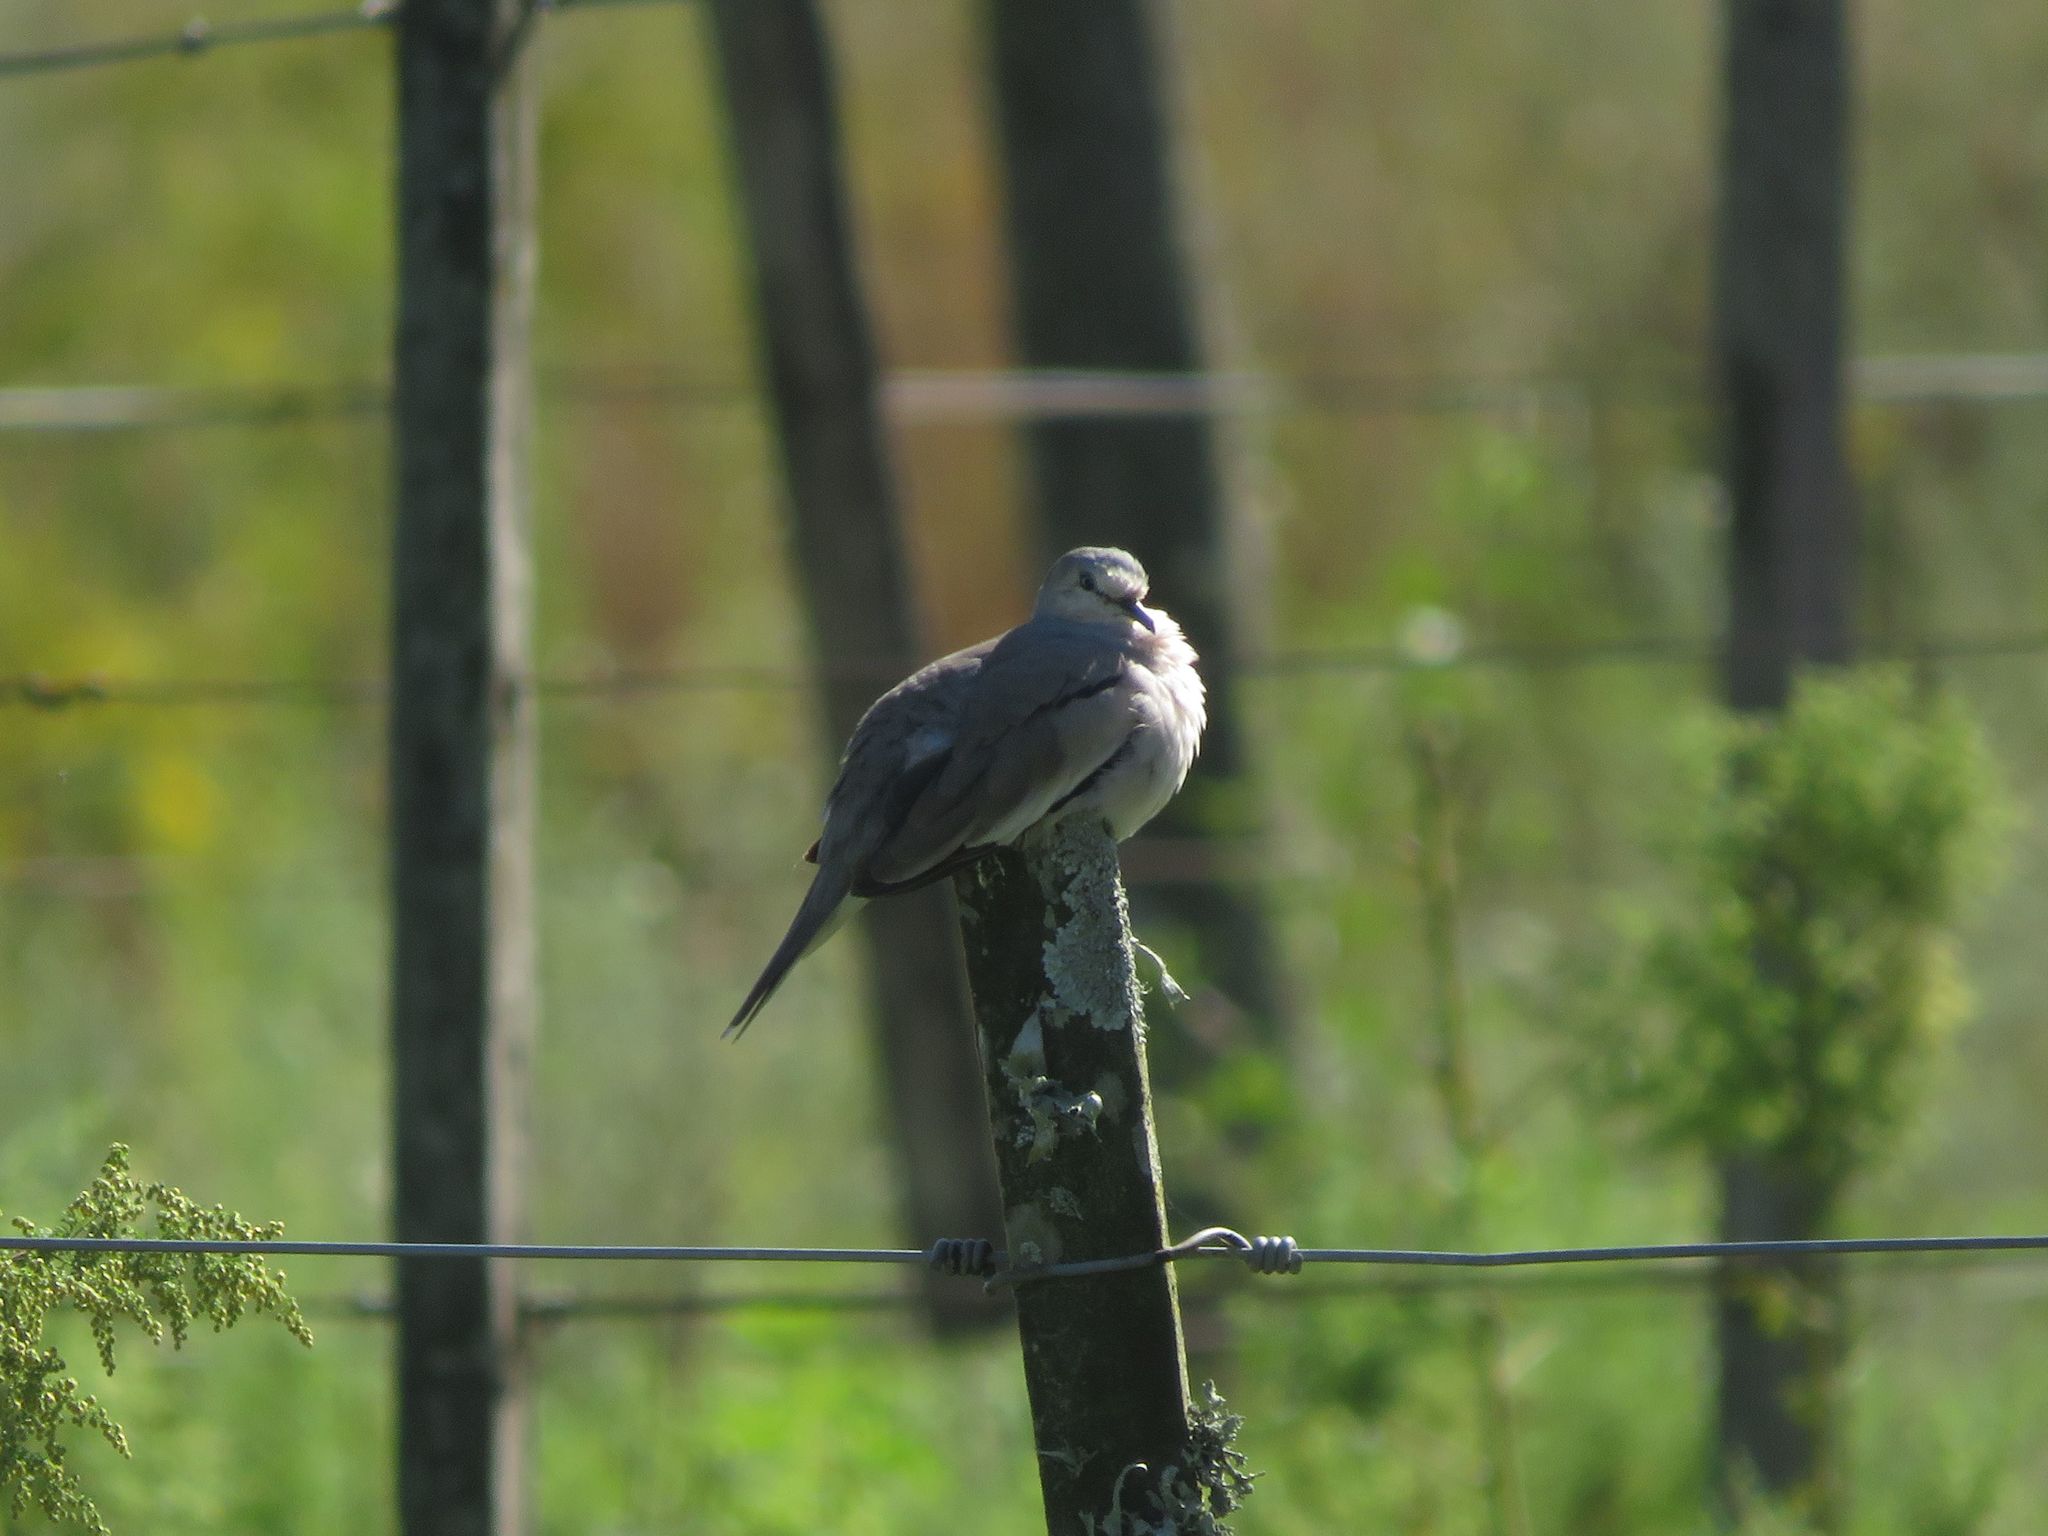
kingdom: Animalia
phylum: Chordata
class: Aves
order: Columbiformes
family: Columbidae
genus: Columbina
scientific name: Columbina picui
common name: Picui ground dove
